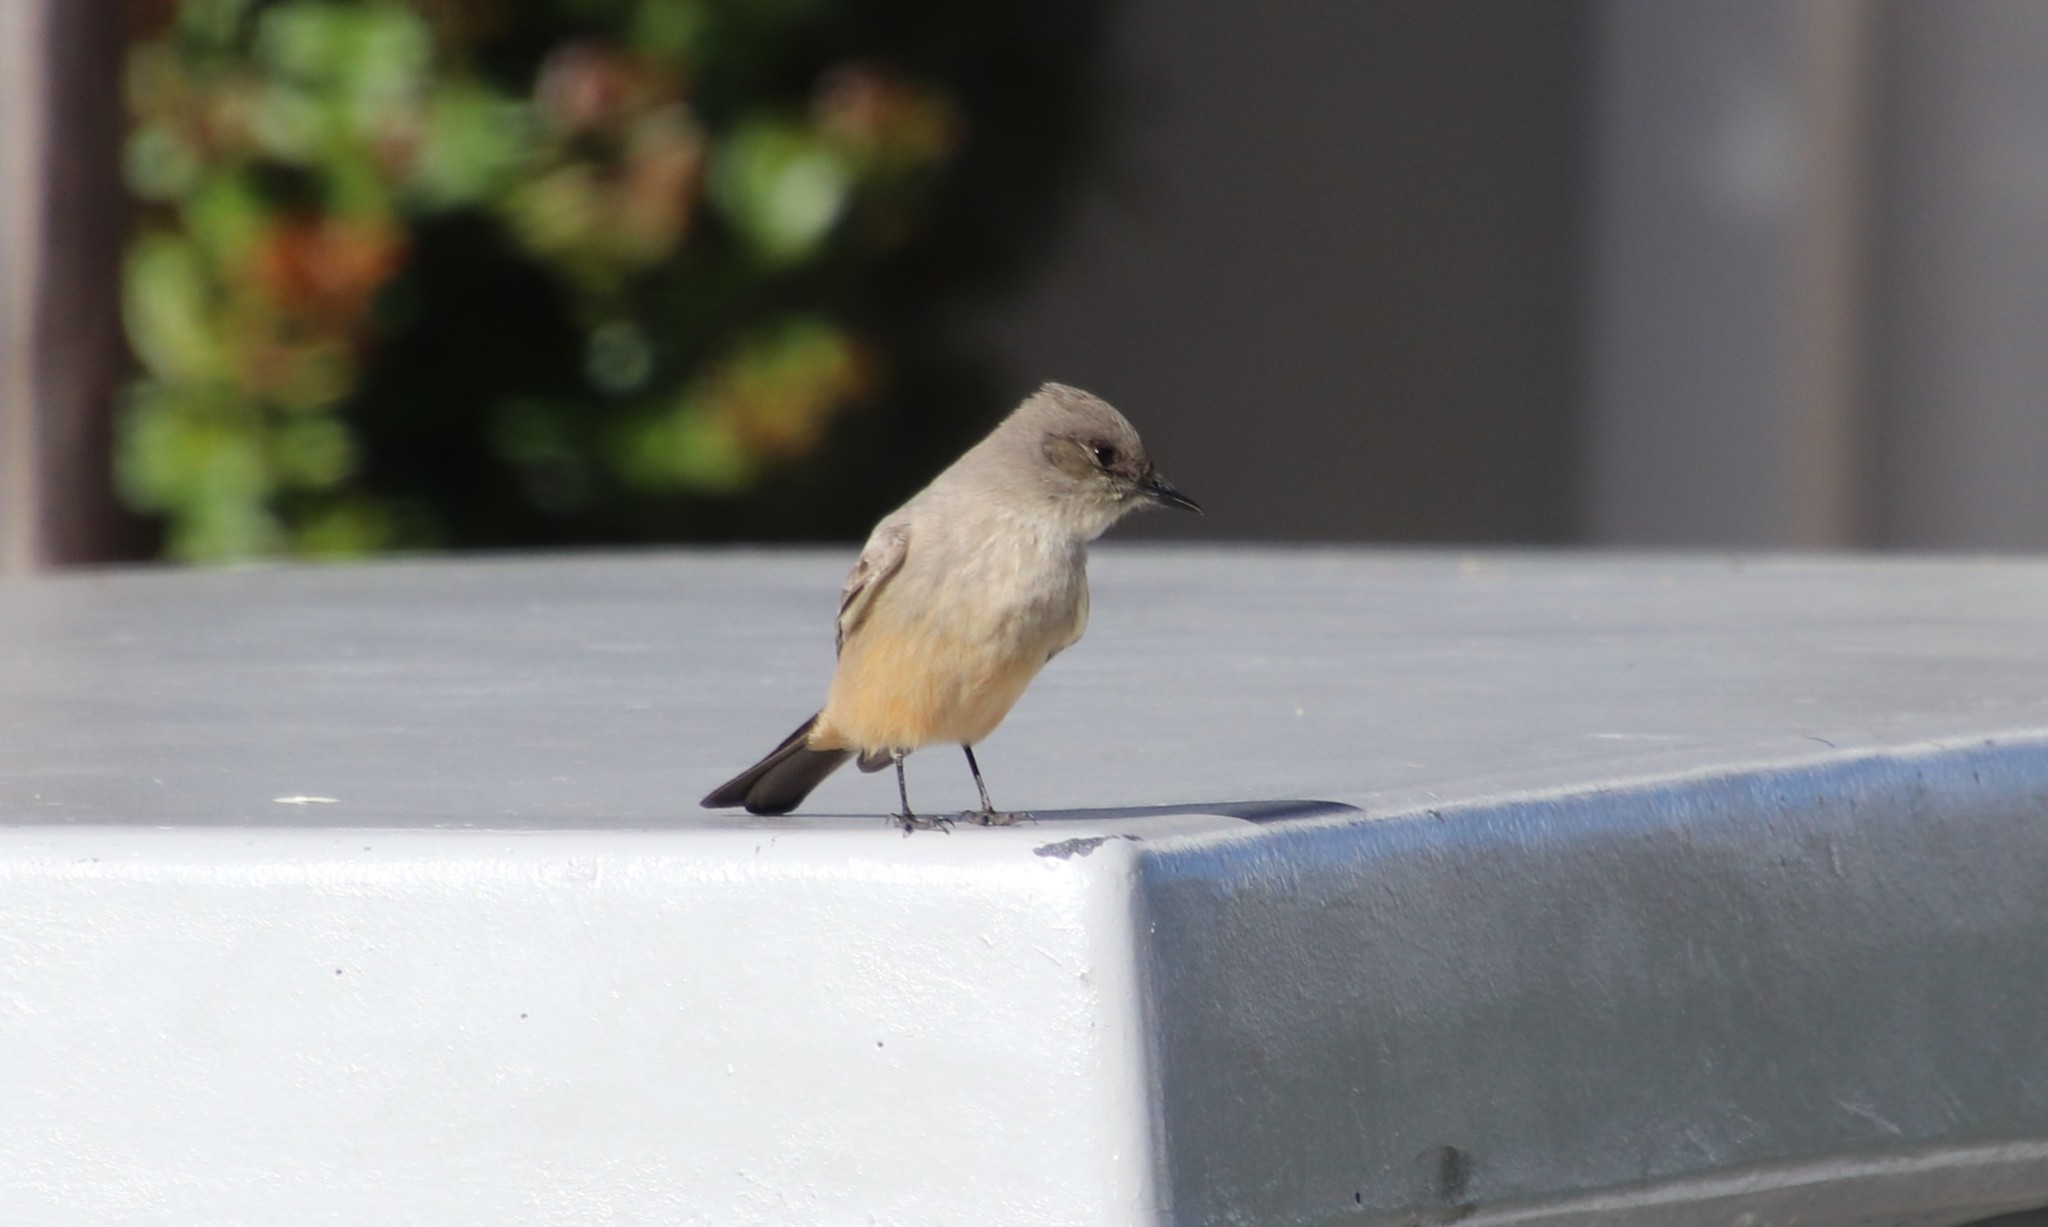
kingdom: Animalia
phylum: Chordata
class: Aves
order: Passeriformes
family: Tyrannidae
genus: Sayornis
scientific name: Sayornis saya
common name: Say's phoebe
